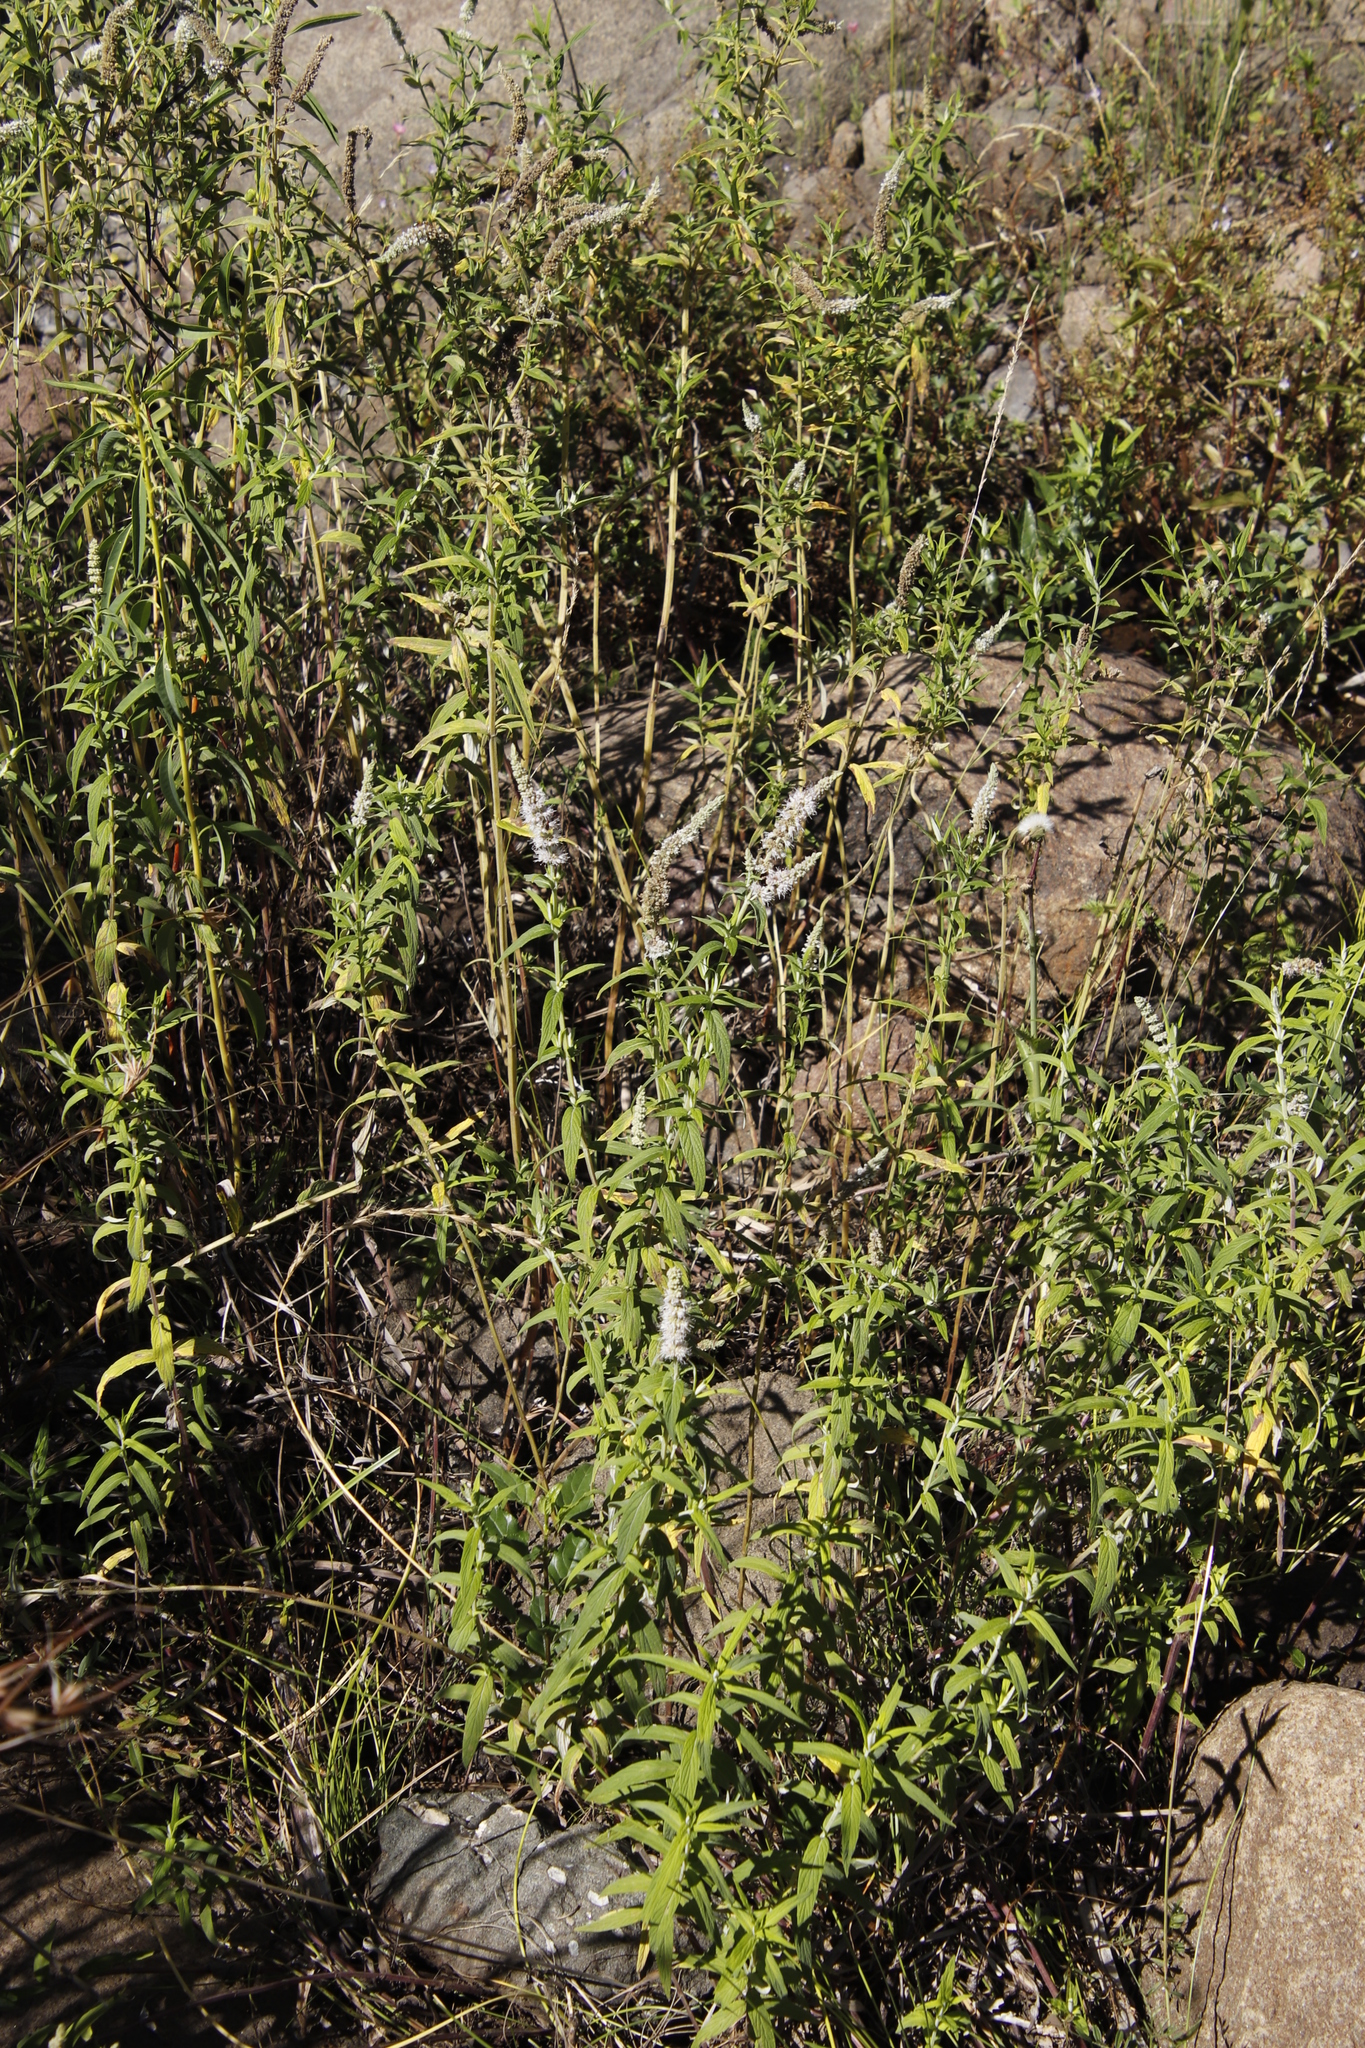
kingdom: Plantae
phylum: Tracheophyta
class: Magnoliopsida
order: Lamiales
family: Lamiaceae
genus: Mentha
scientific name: Mentha longifolia
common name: Horse mint
